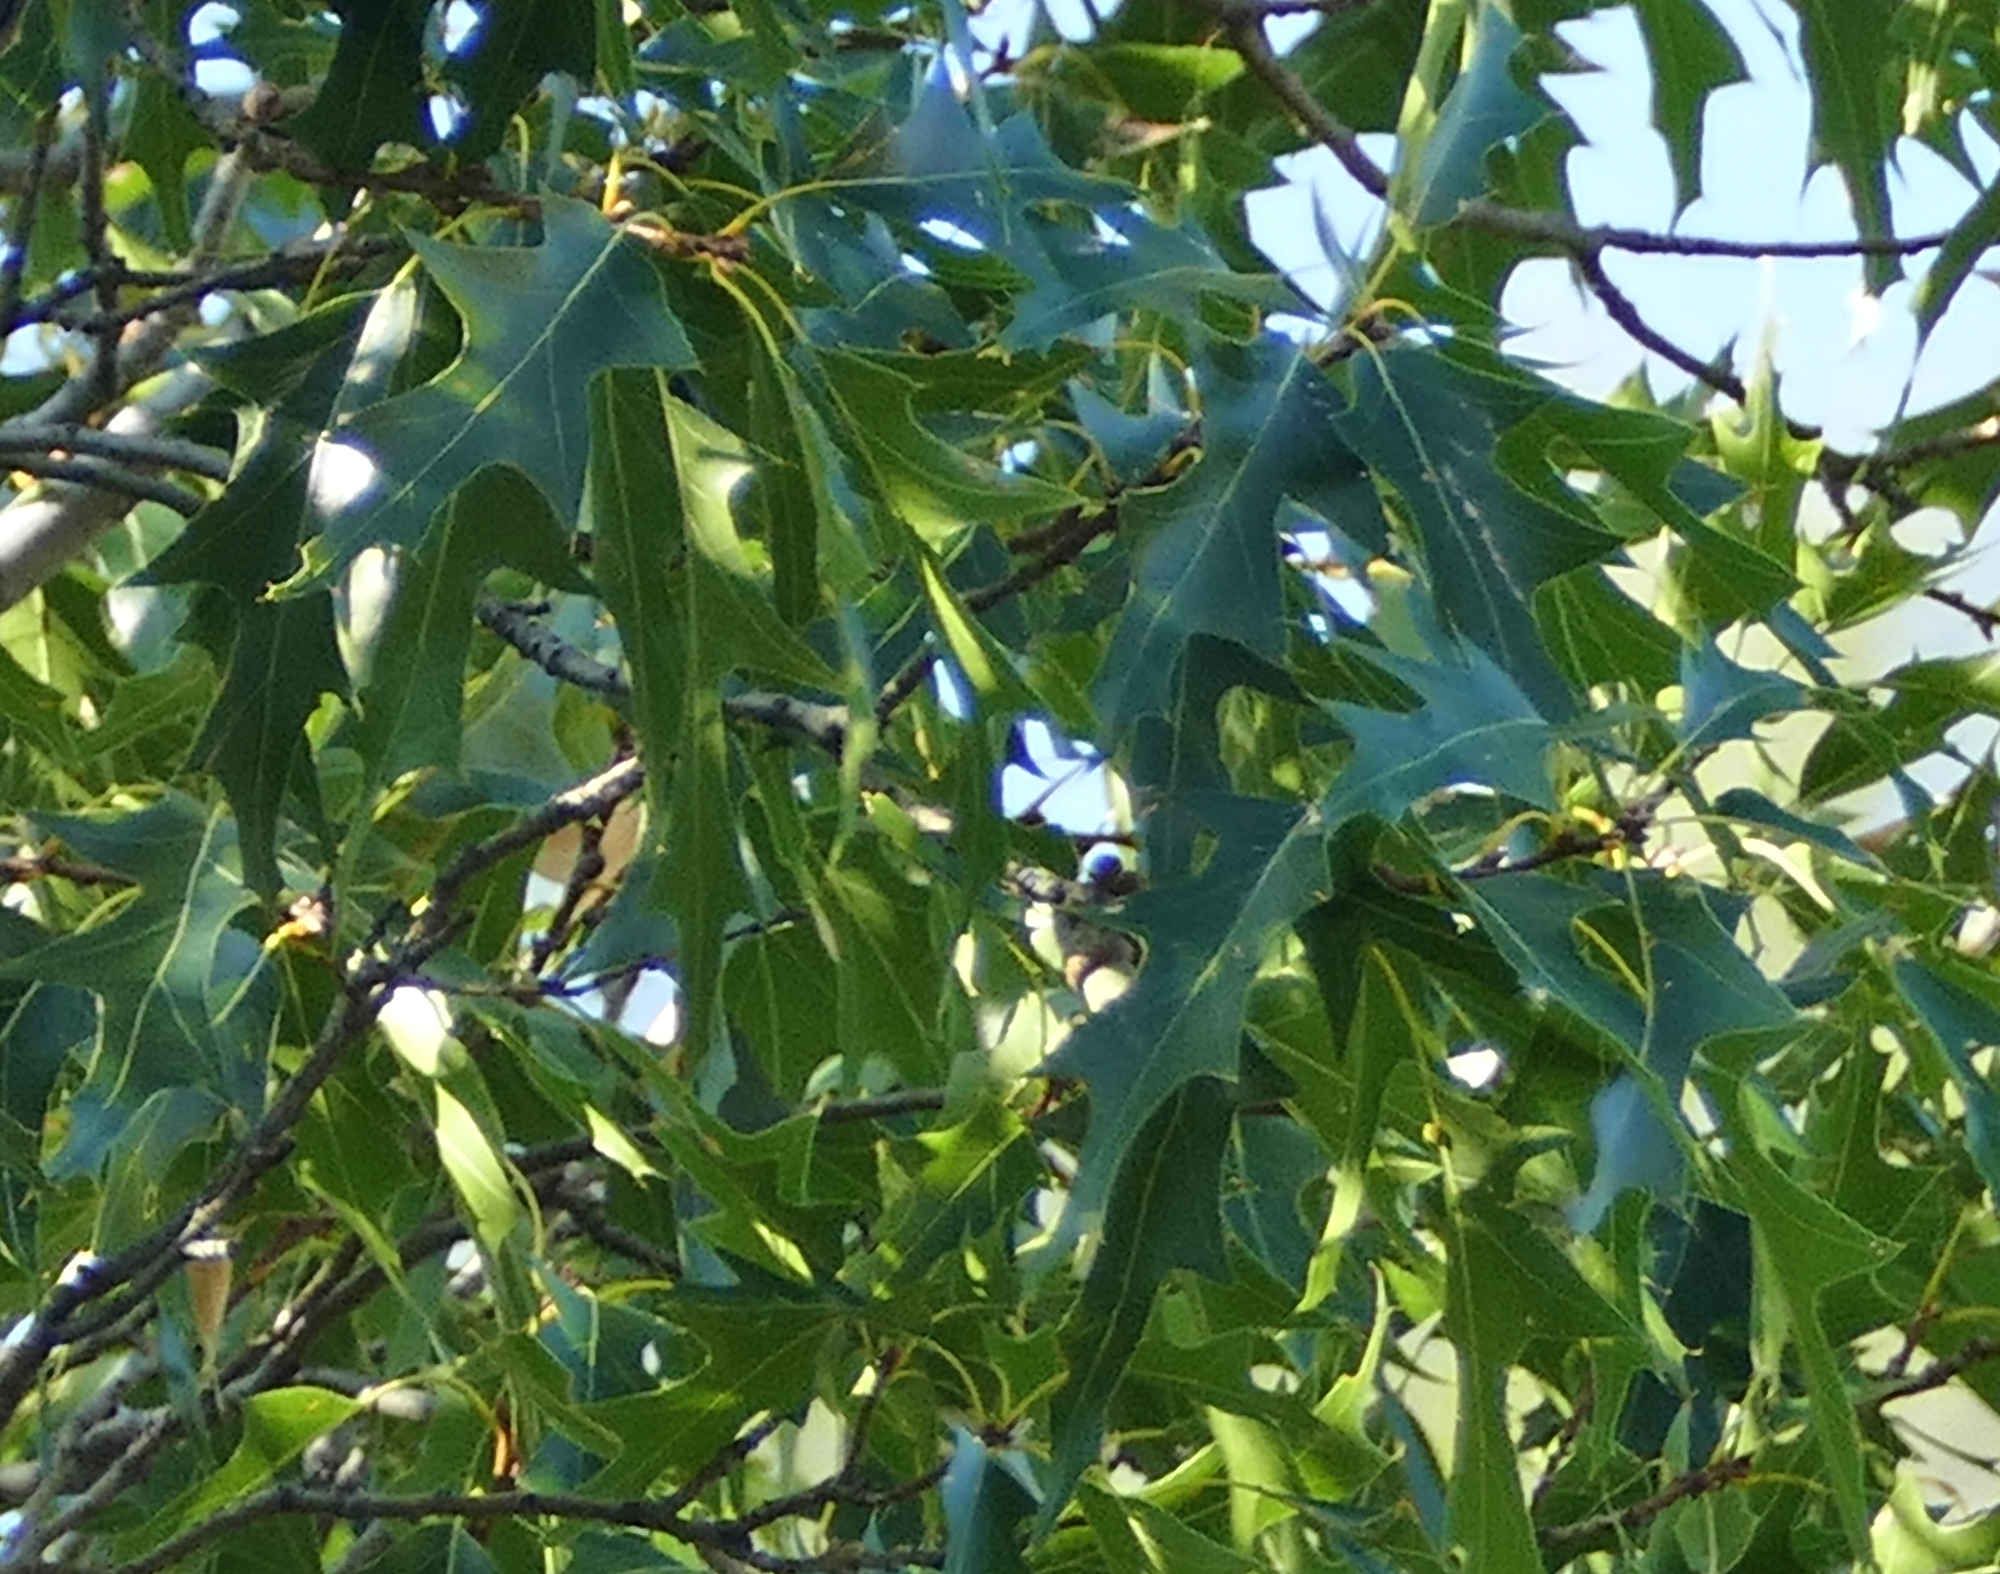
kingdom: Plantae
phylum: Tracheophyta
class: Magnoliopsida
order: Fagales
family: Fagaceae
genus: Quercus
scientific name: Quercus gravesii
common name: Chisos red oak
